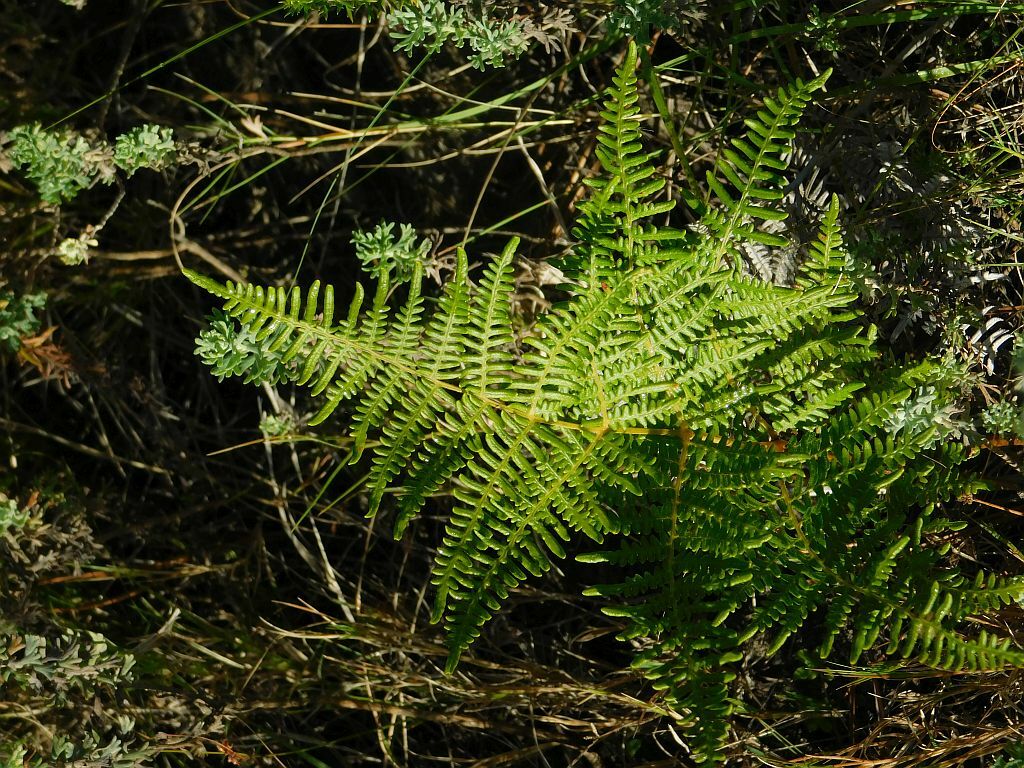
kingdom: Plantae
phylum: Tracheophyta
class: Polypodiopsida
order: Polypodiales
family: Dennstaedtiaceae
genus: Pteridium
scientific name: Pteridium aquilinum
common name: Bracken
